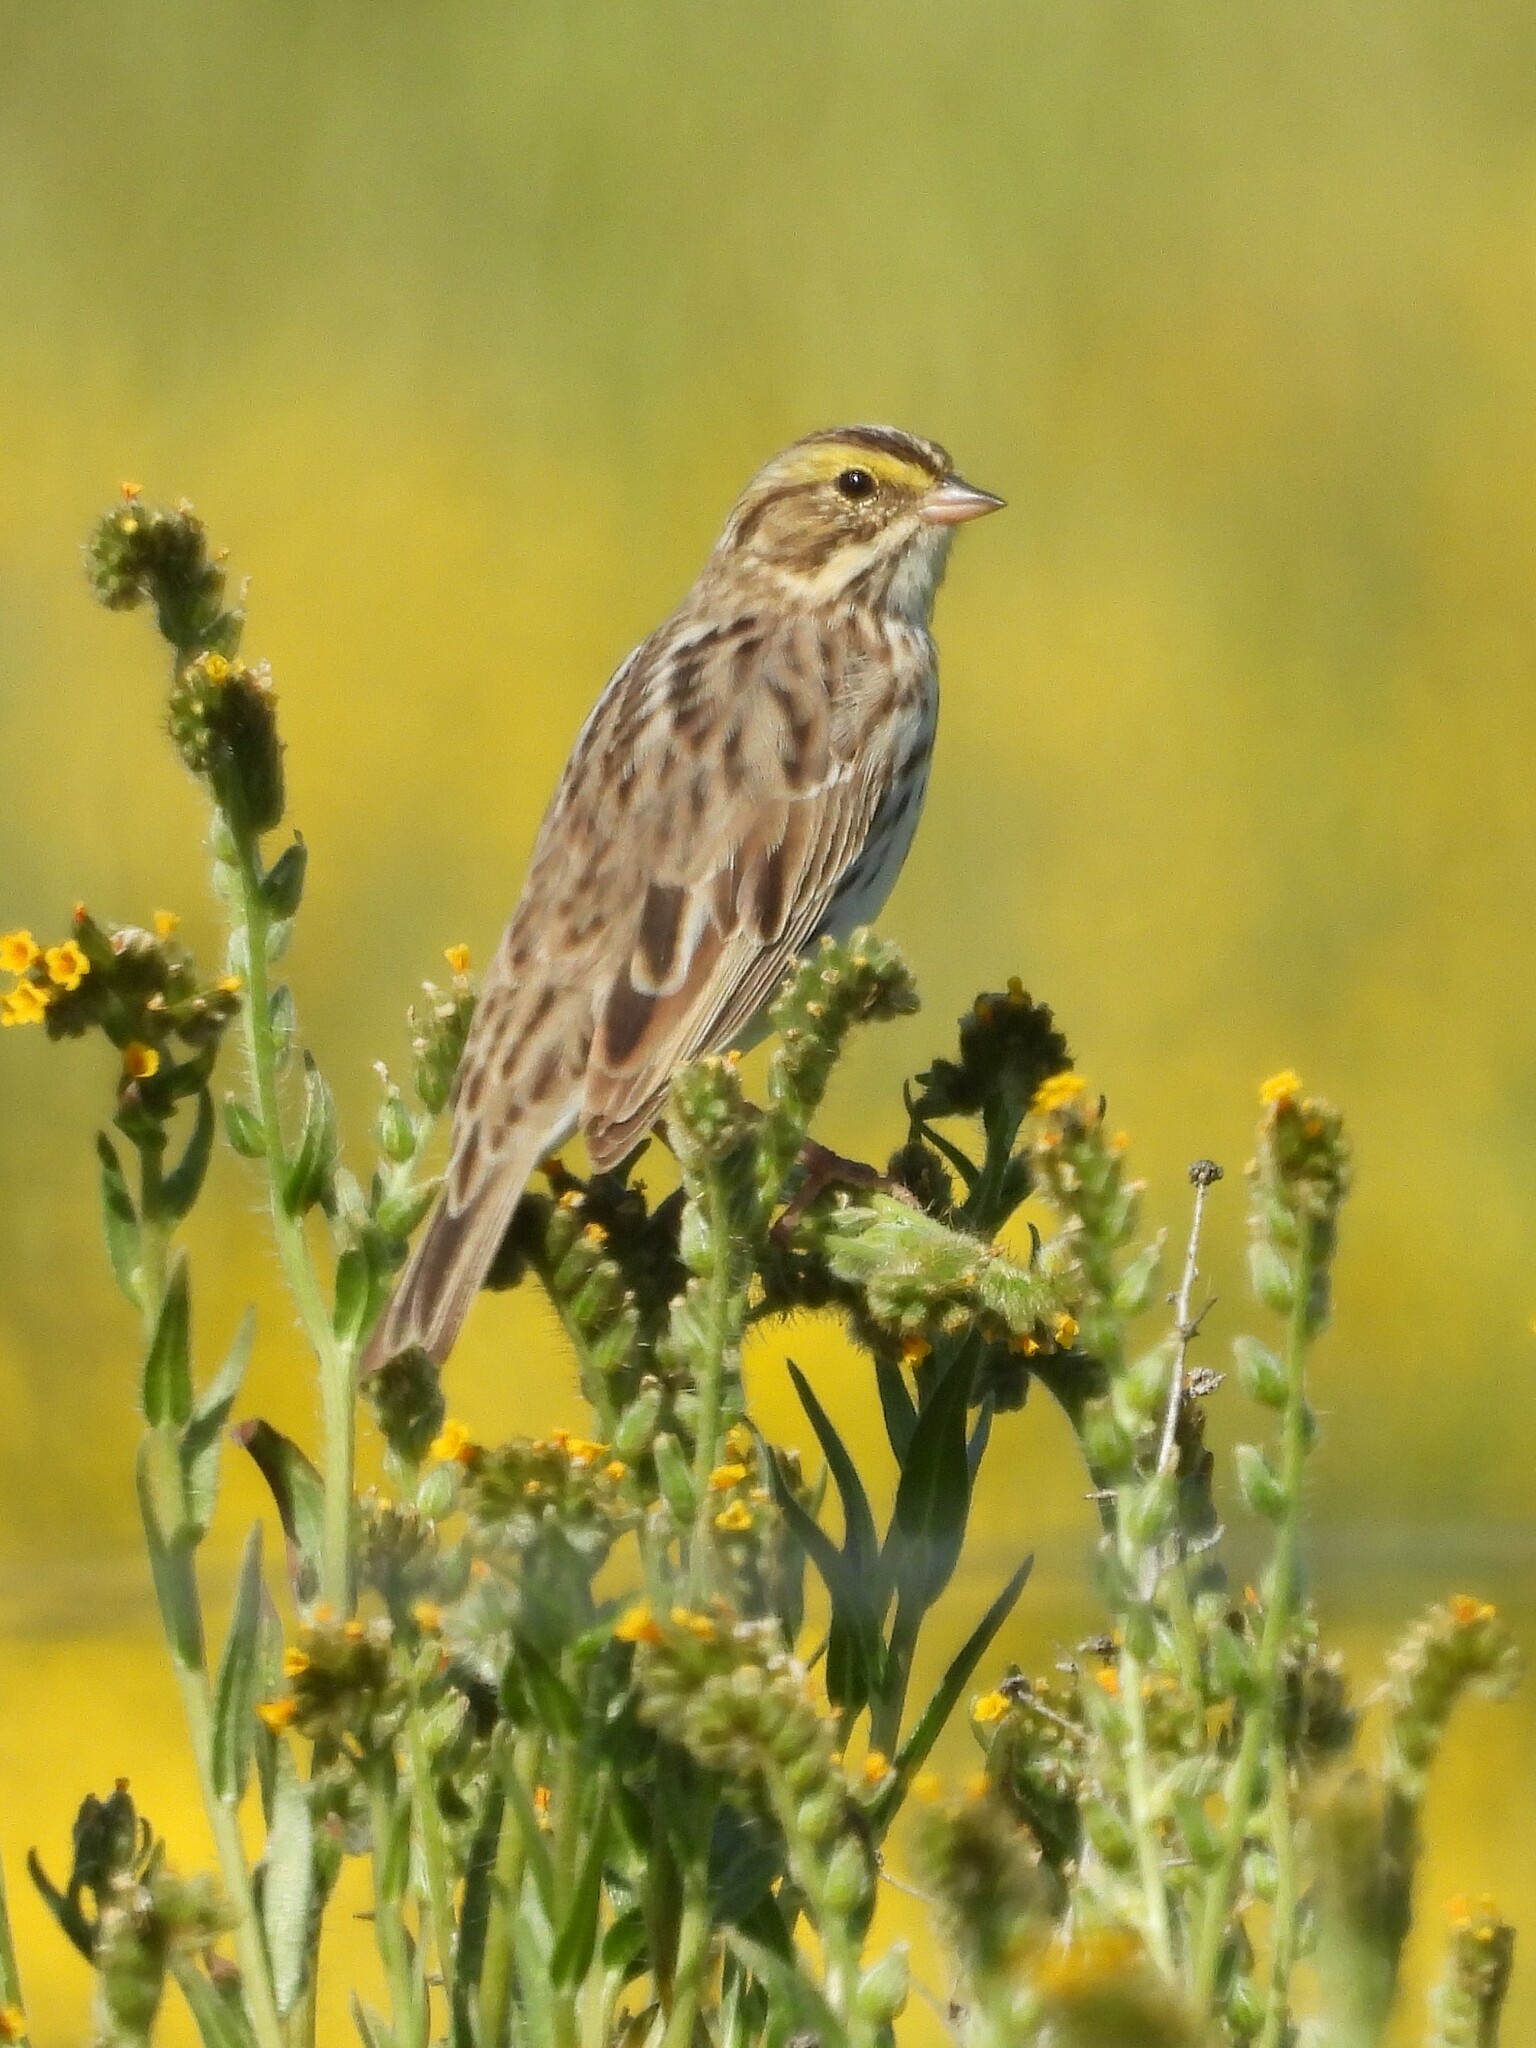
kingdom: Animalia
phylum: Chordata
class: Aves
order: Passeriformes
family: Passerellidae
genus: Passerculus
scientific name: Passerculus sandwichensis
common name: Savannah sparrow
